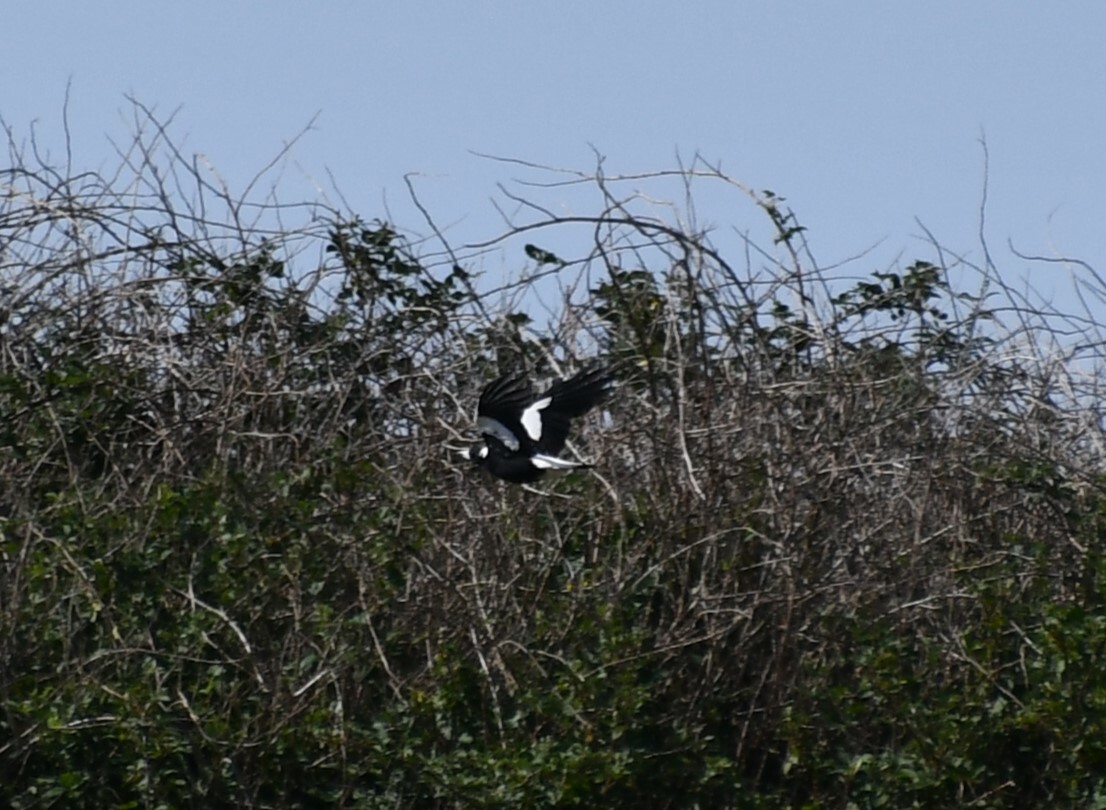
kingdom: Animalia
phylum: Chordata
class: Aves
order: Passeriformes
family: Cracticidae
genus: Gymnorhina
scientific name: Gymnorhina tibicen
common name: Australian magpie
